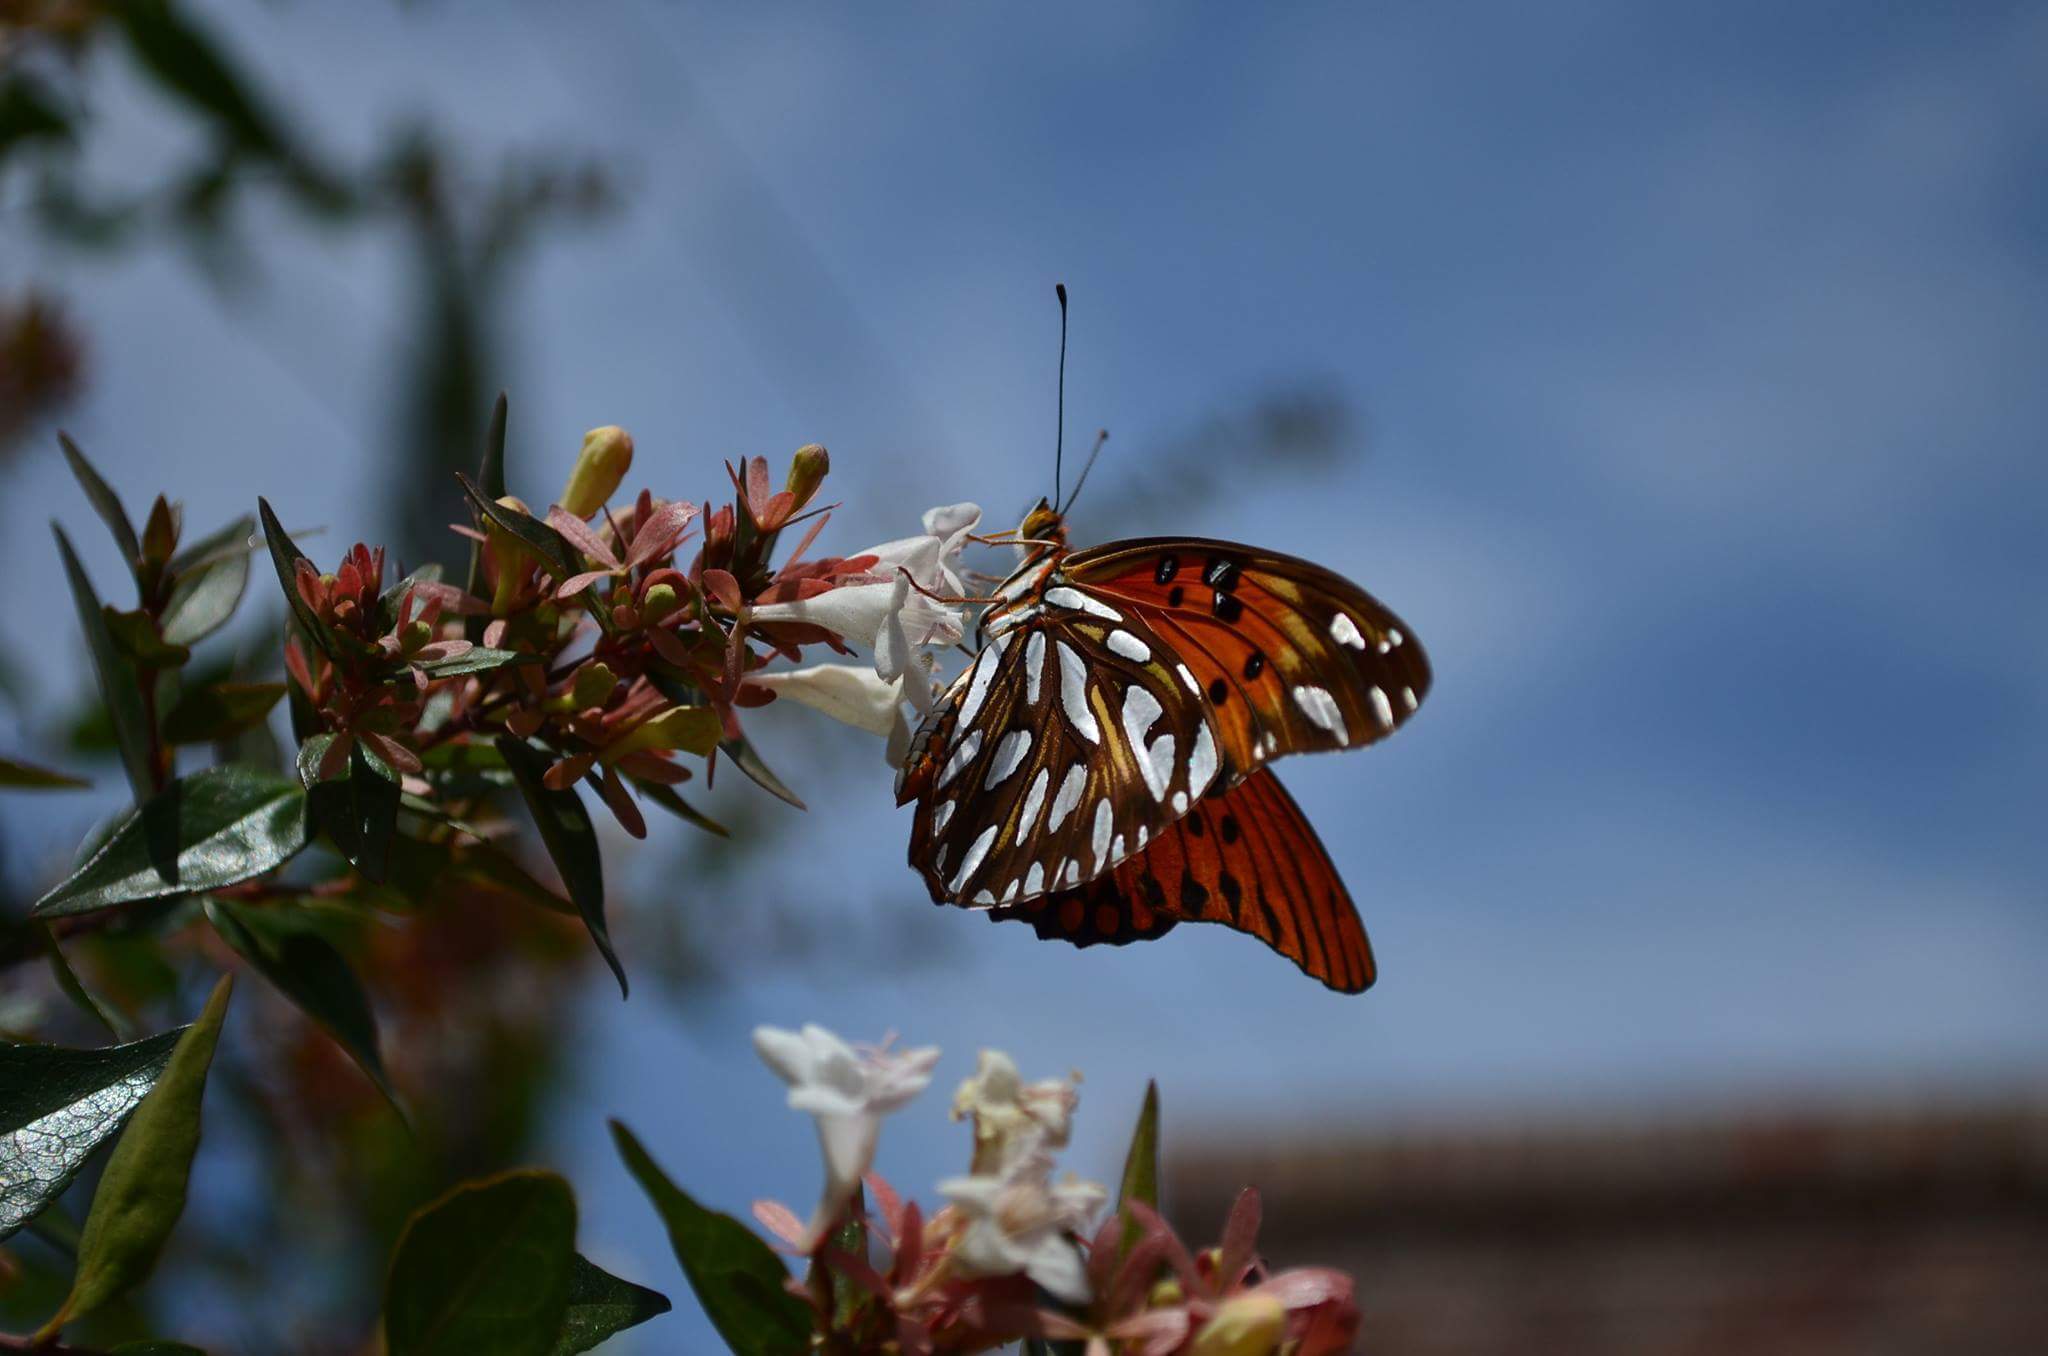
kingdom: Animalia
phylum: Arthropoda
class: Insecta
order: Lepidoptera
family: Nymphalidae
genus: Dione
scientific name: Dione vanillae
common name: Gulf fritillary
